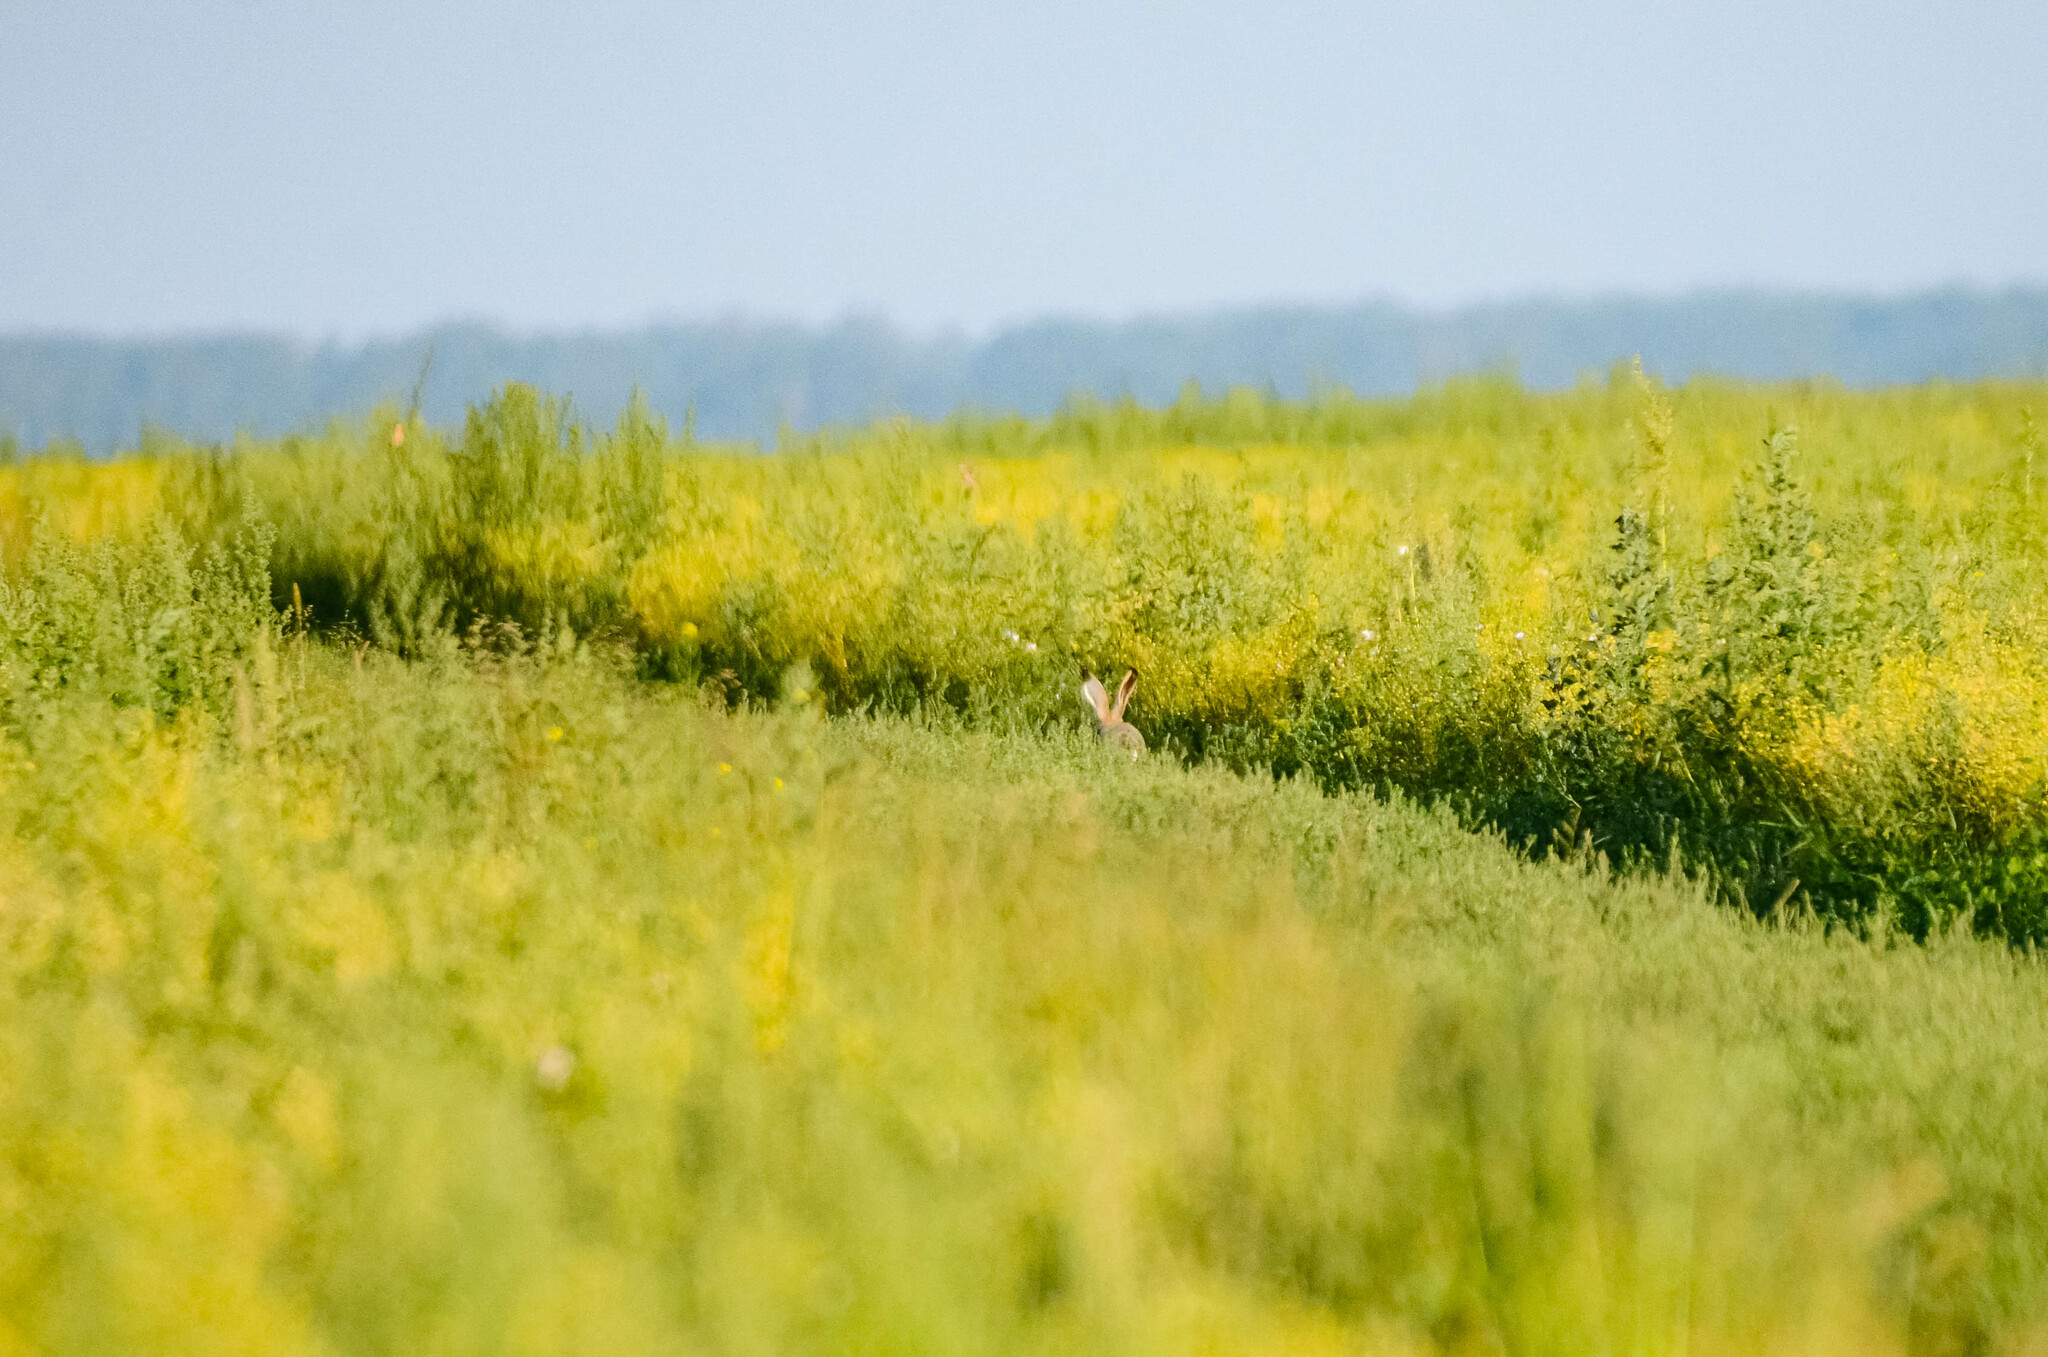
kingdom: Animalia
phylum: Chordata
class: Mammalia
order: Lagomorpha
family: Leporidae
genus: Lepus
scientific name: Lepus europaeus
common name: European hare
